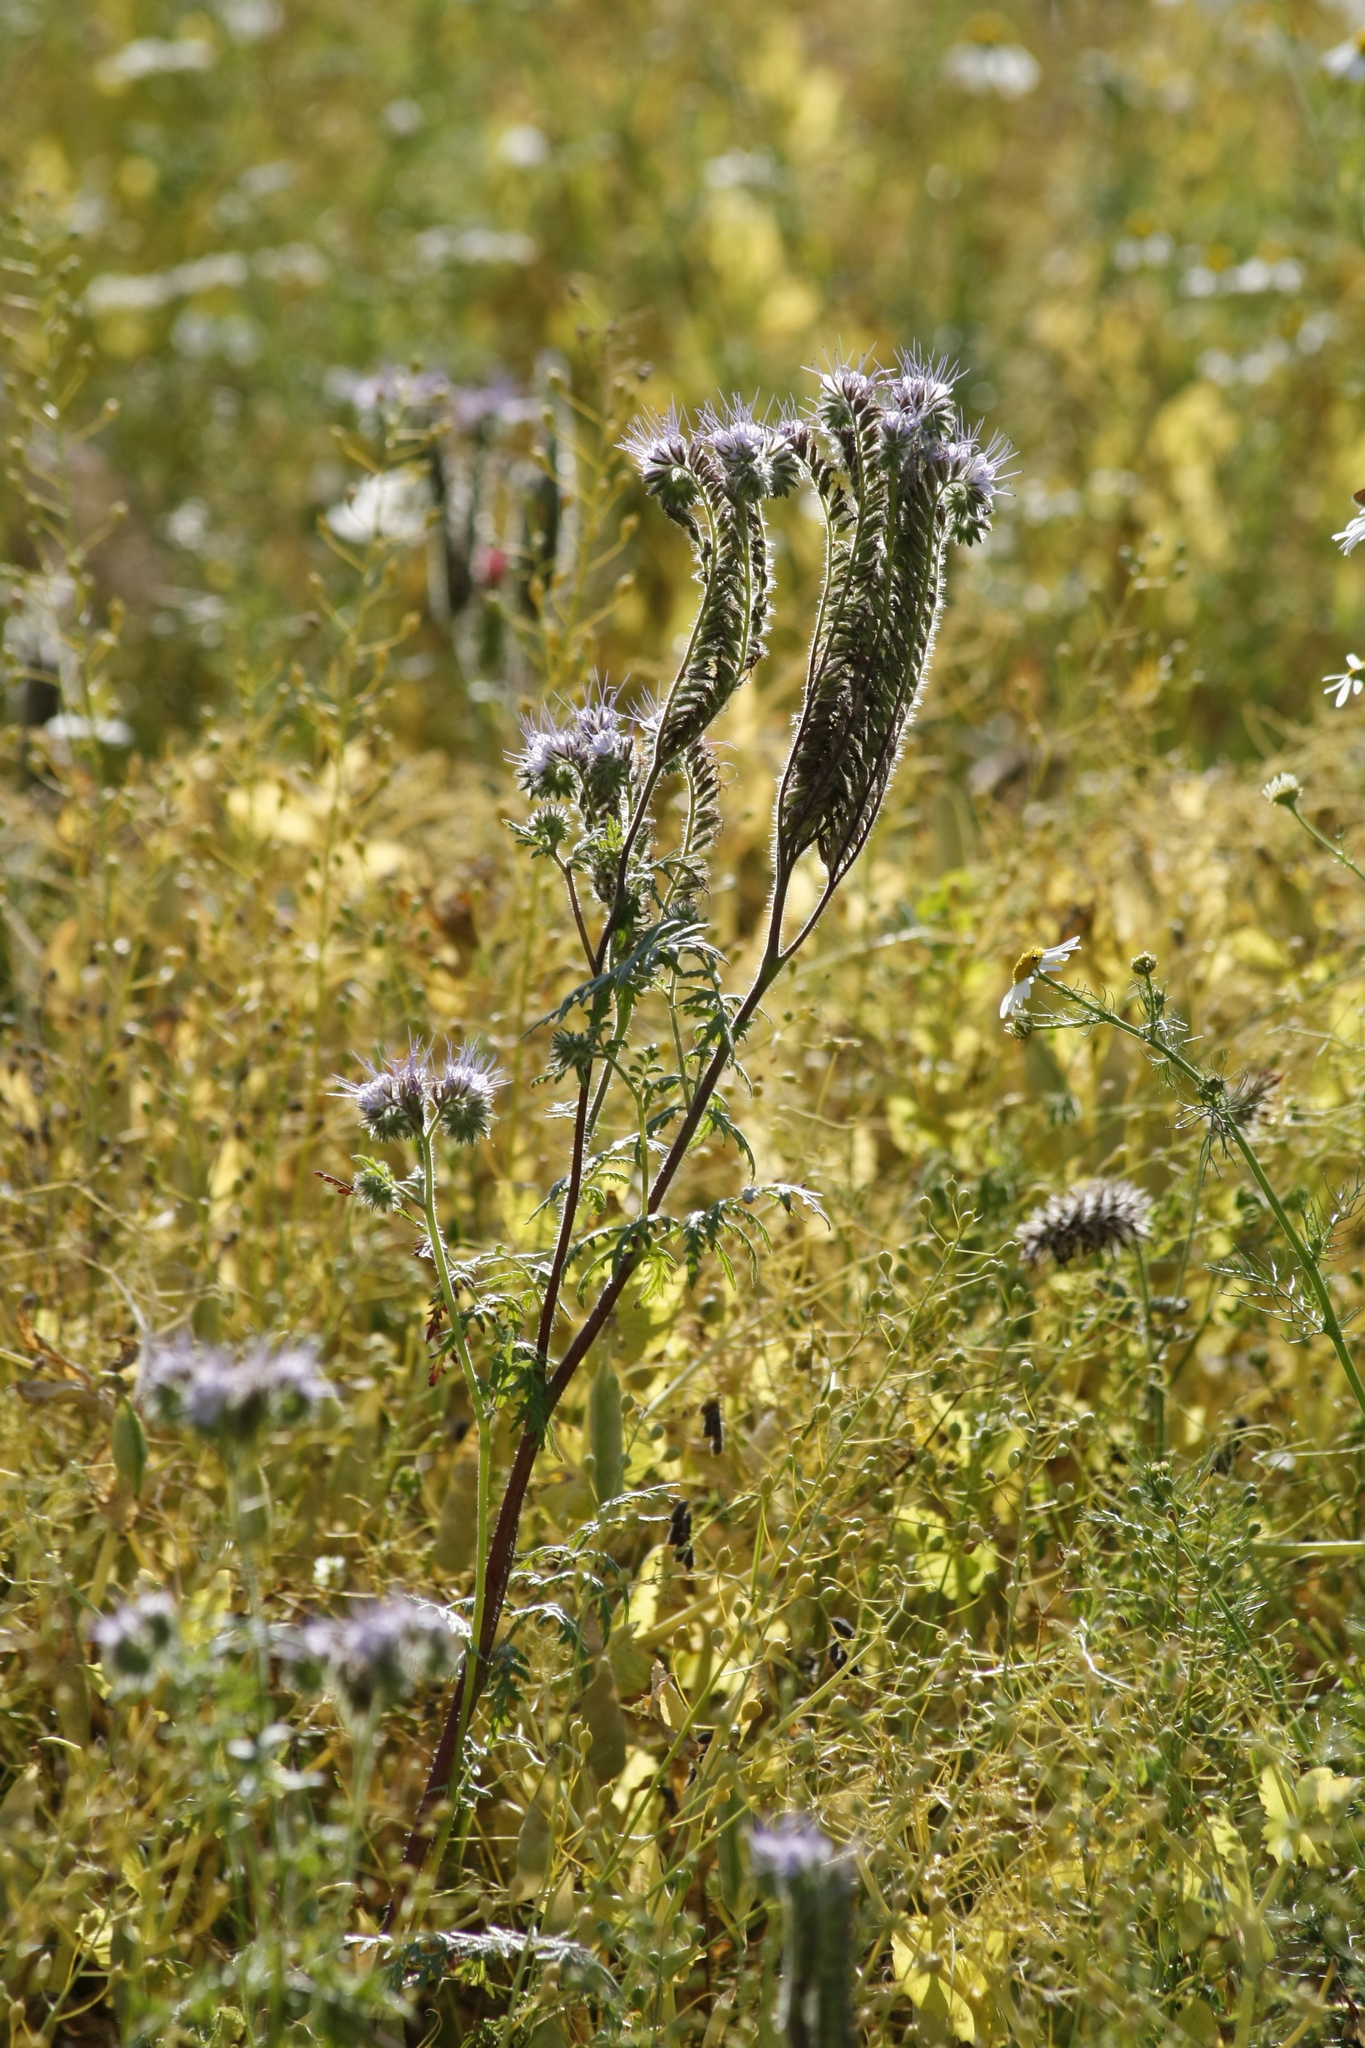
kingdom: Plantae
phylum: Tracheophyta
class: Magnoliopsida
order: Boraginales
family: Hydrophyllaceae
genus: Phacelia
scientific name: Phacelia tanacetifolia
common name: Phacelia
